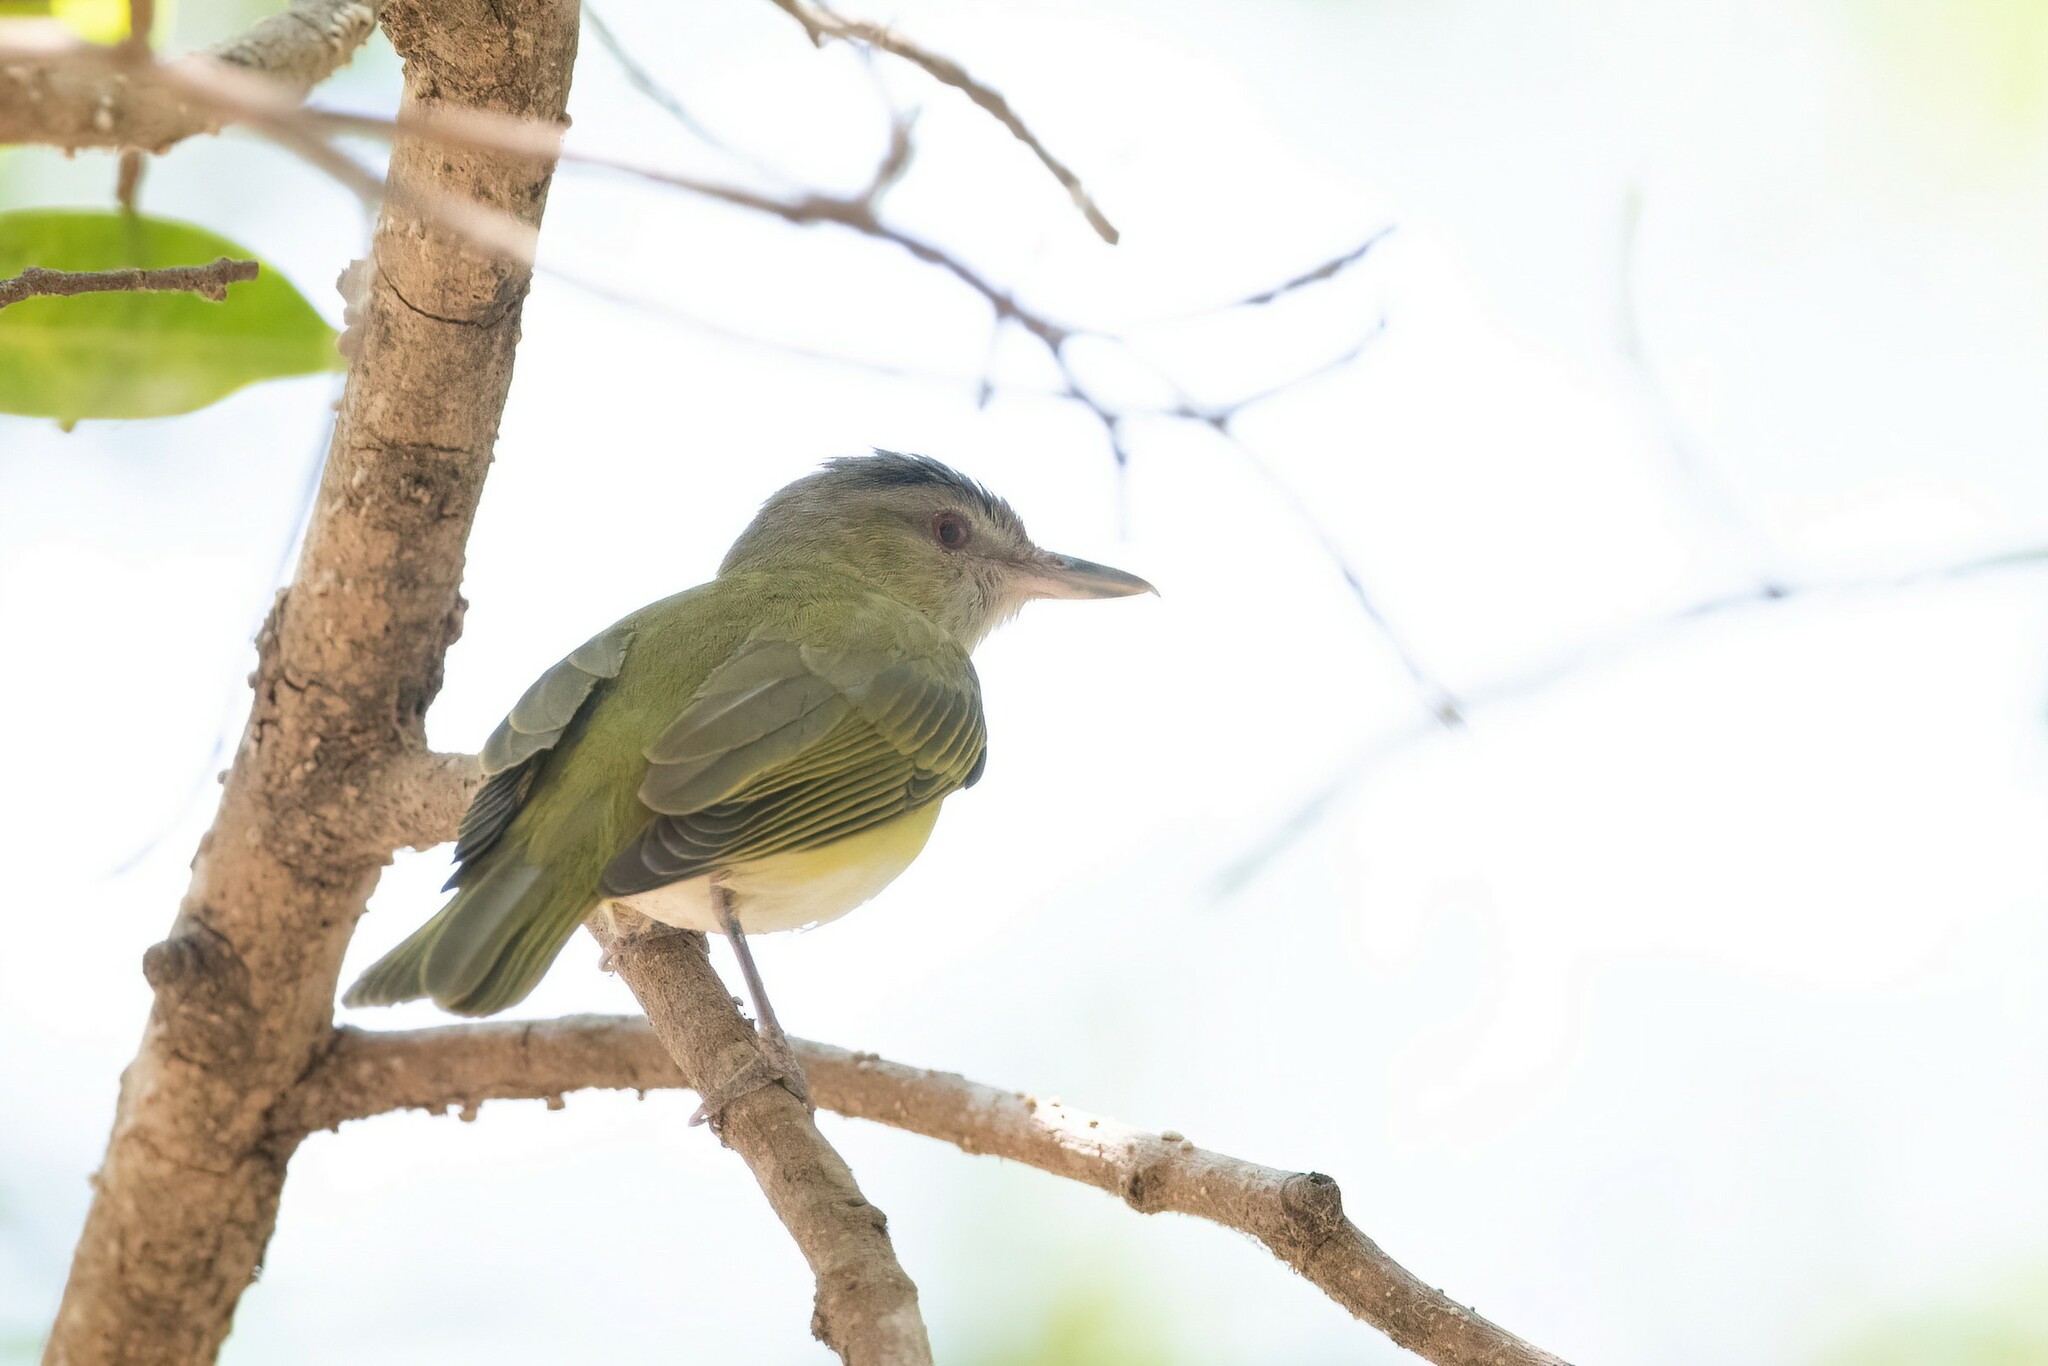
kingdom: Animalia
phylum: Chordata
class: Aves
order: Passeriformes
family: Vireonidae
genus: Vireo
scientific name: Vireo flavoviridis
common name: Yellow-green vireo
